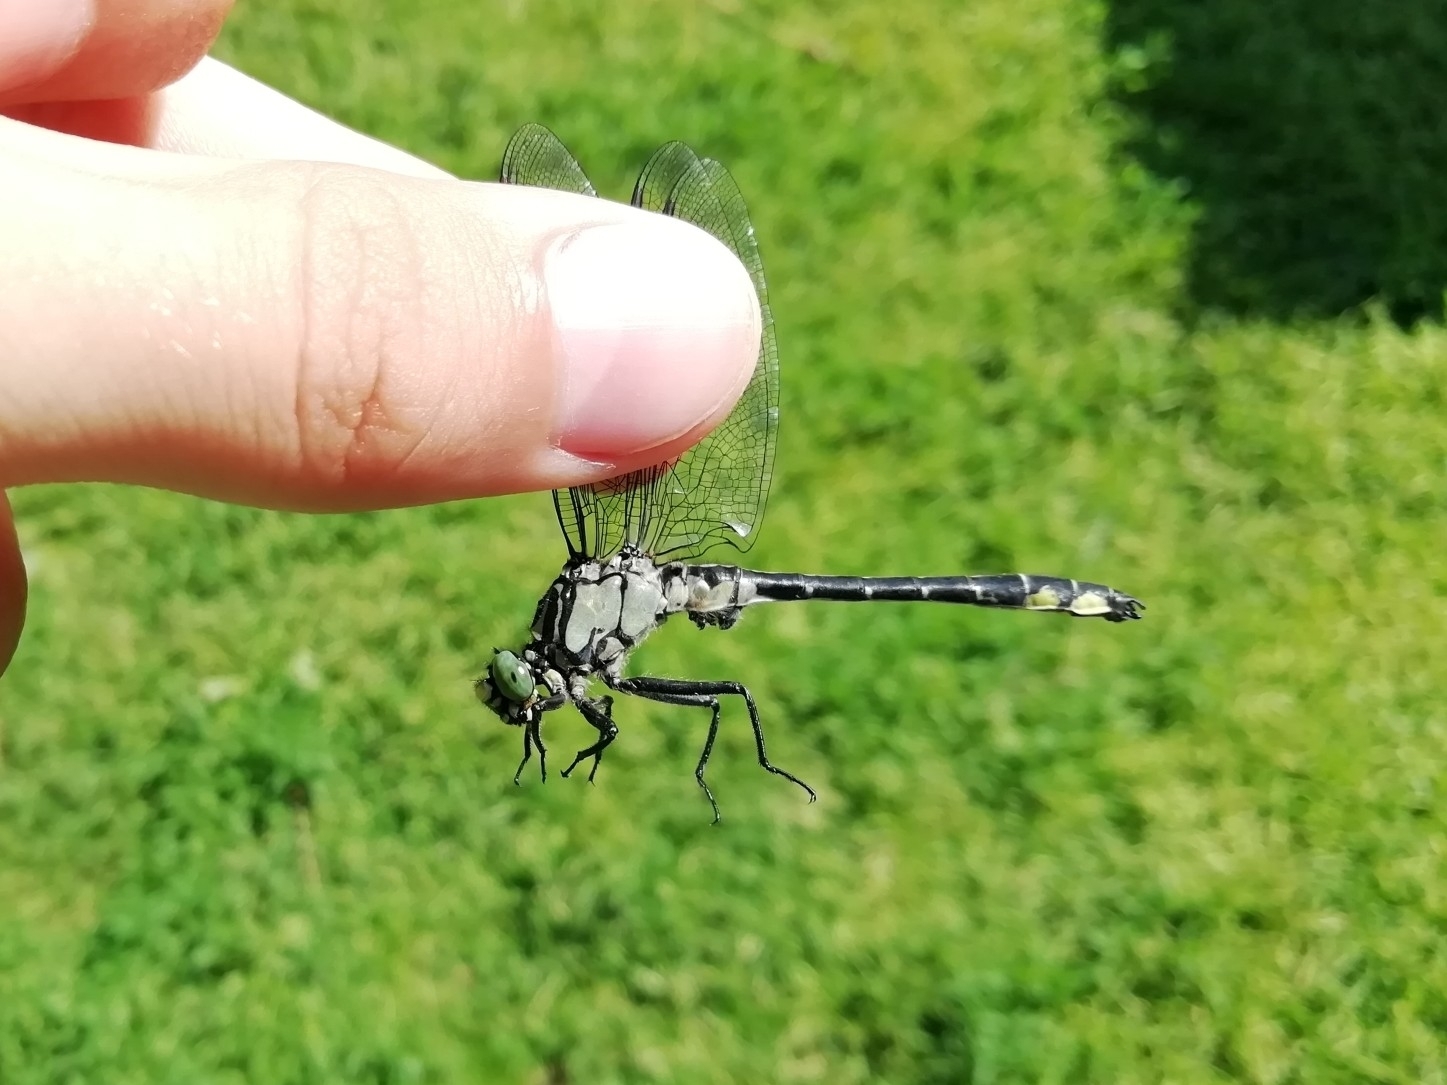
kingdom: Animalia
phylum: Arthropoda
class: Insecta
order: Odonata
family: Gomphidae
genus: Gomphus
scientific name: Gomphus vulgatissimus
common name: Club-tailed dragonfly
